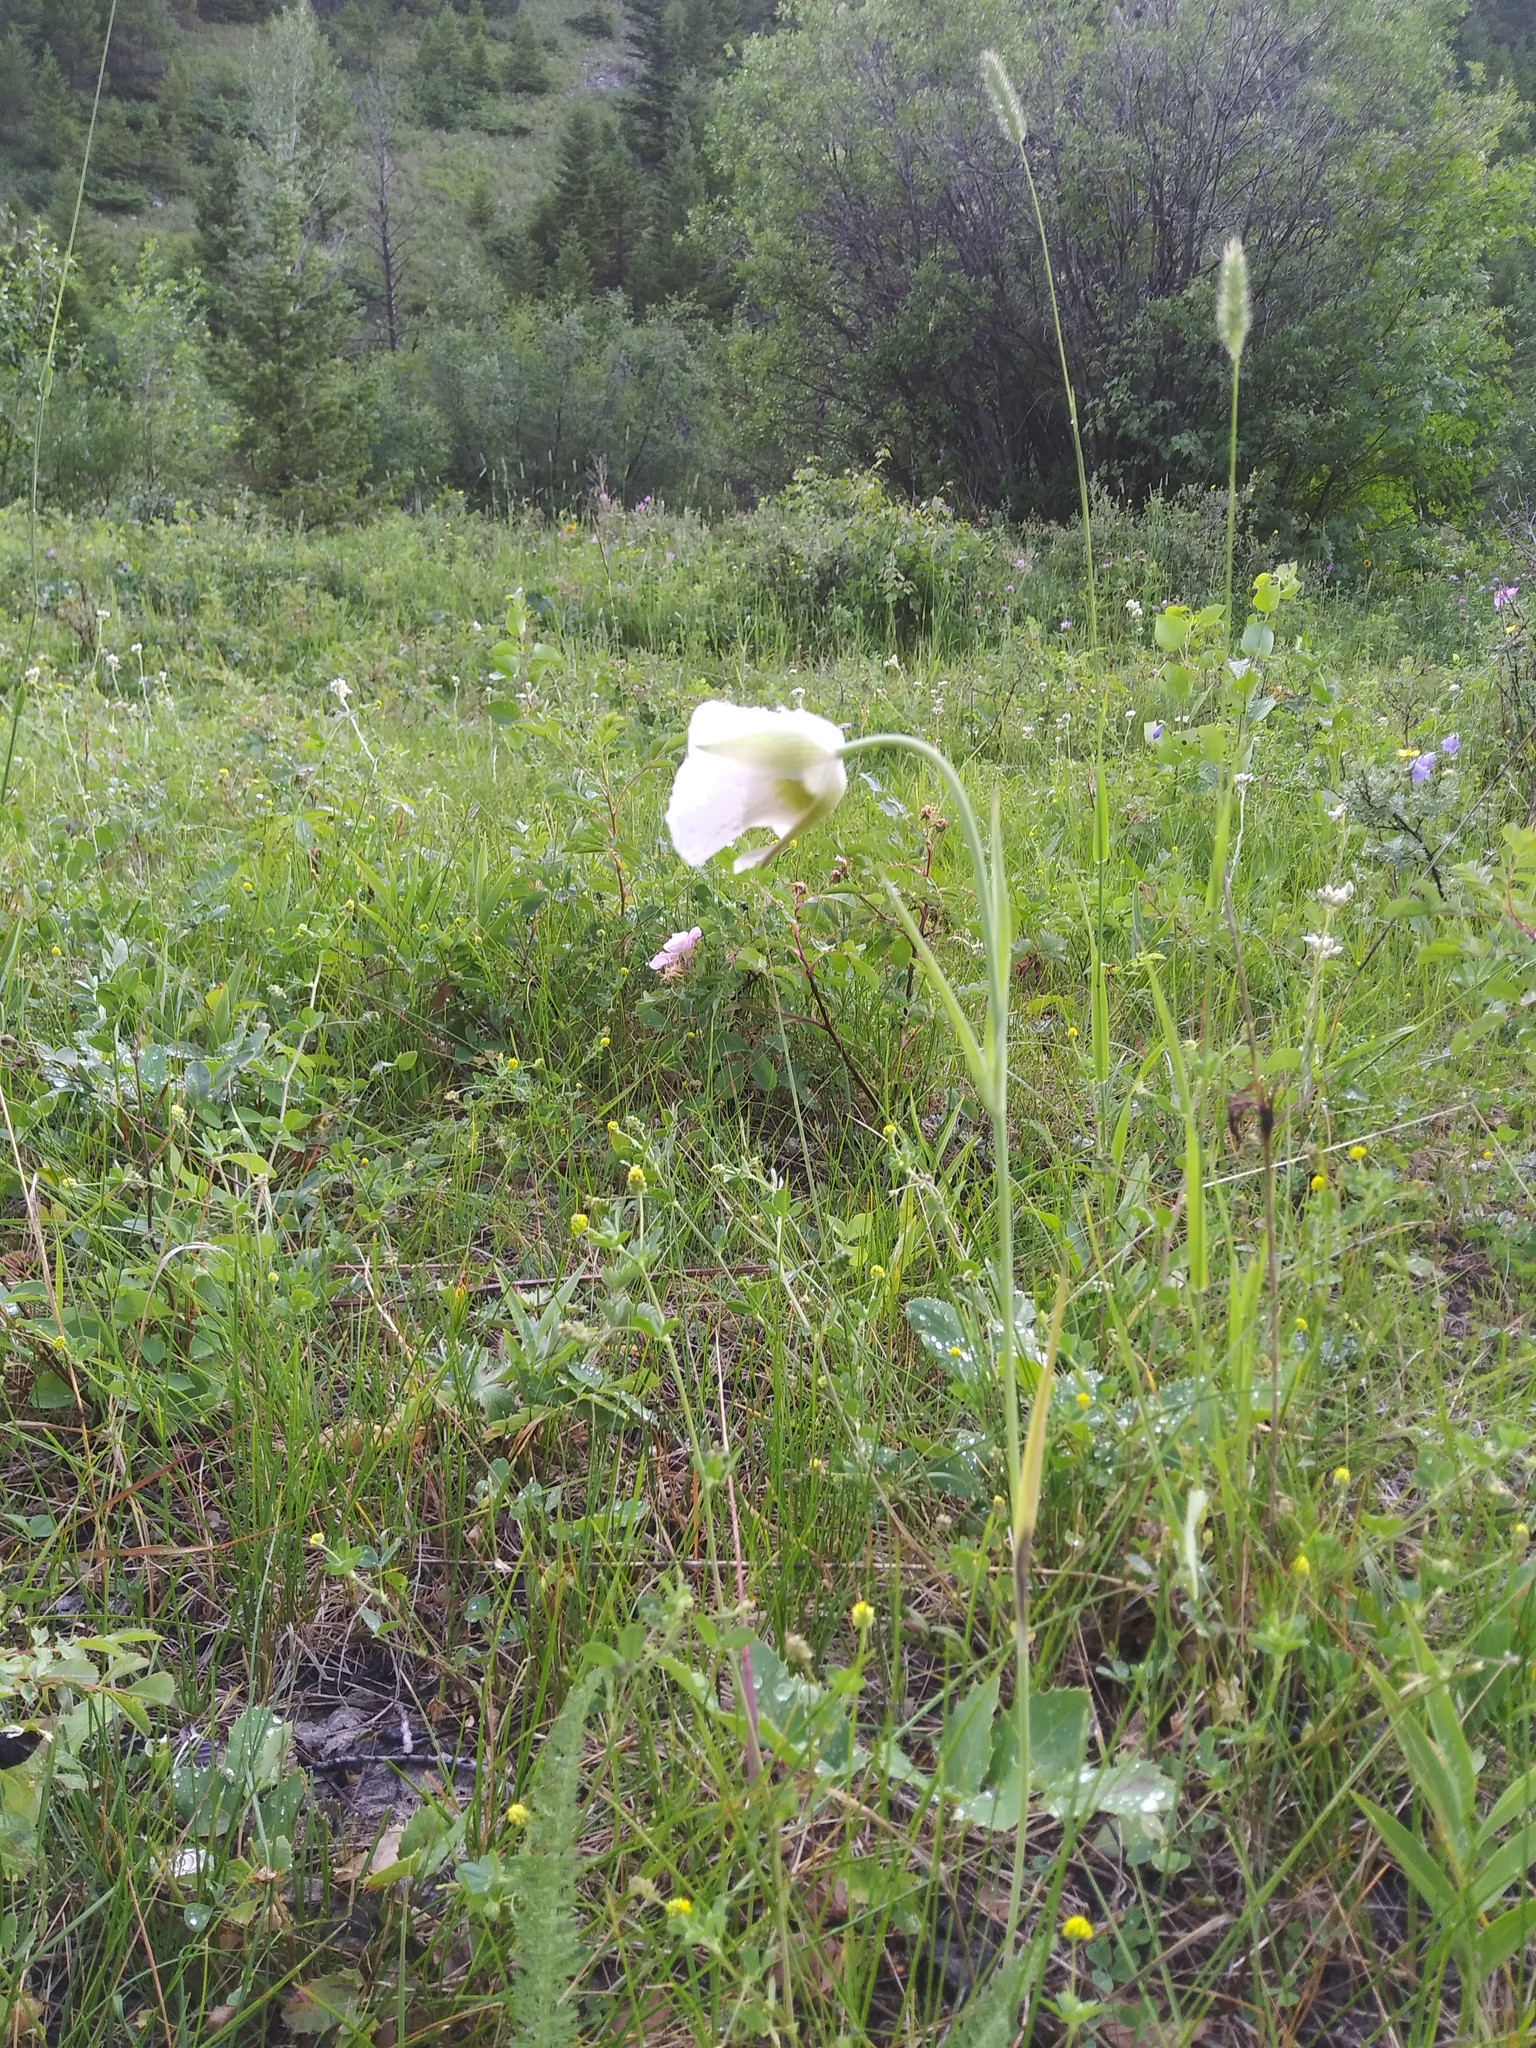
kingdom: Plantae
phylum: Tracheophyta
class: Liliopsida
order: Liliales
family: Liliaceae
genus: Calochortus
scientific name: Calochortus gunnisonii
